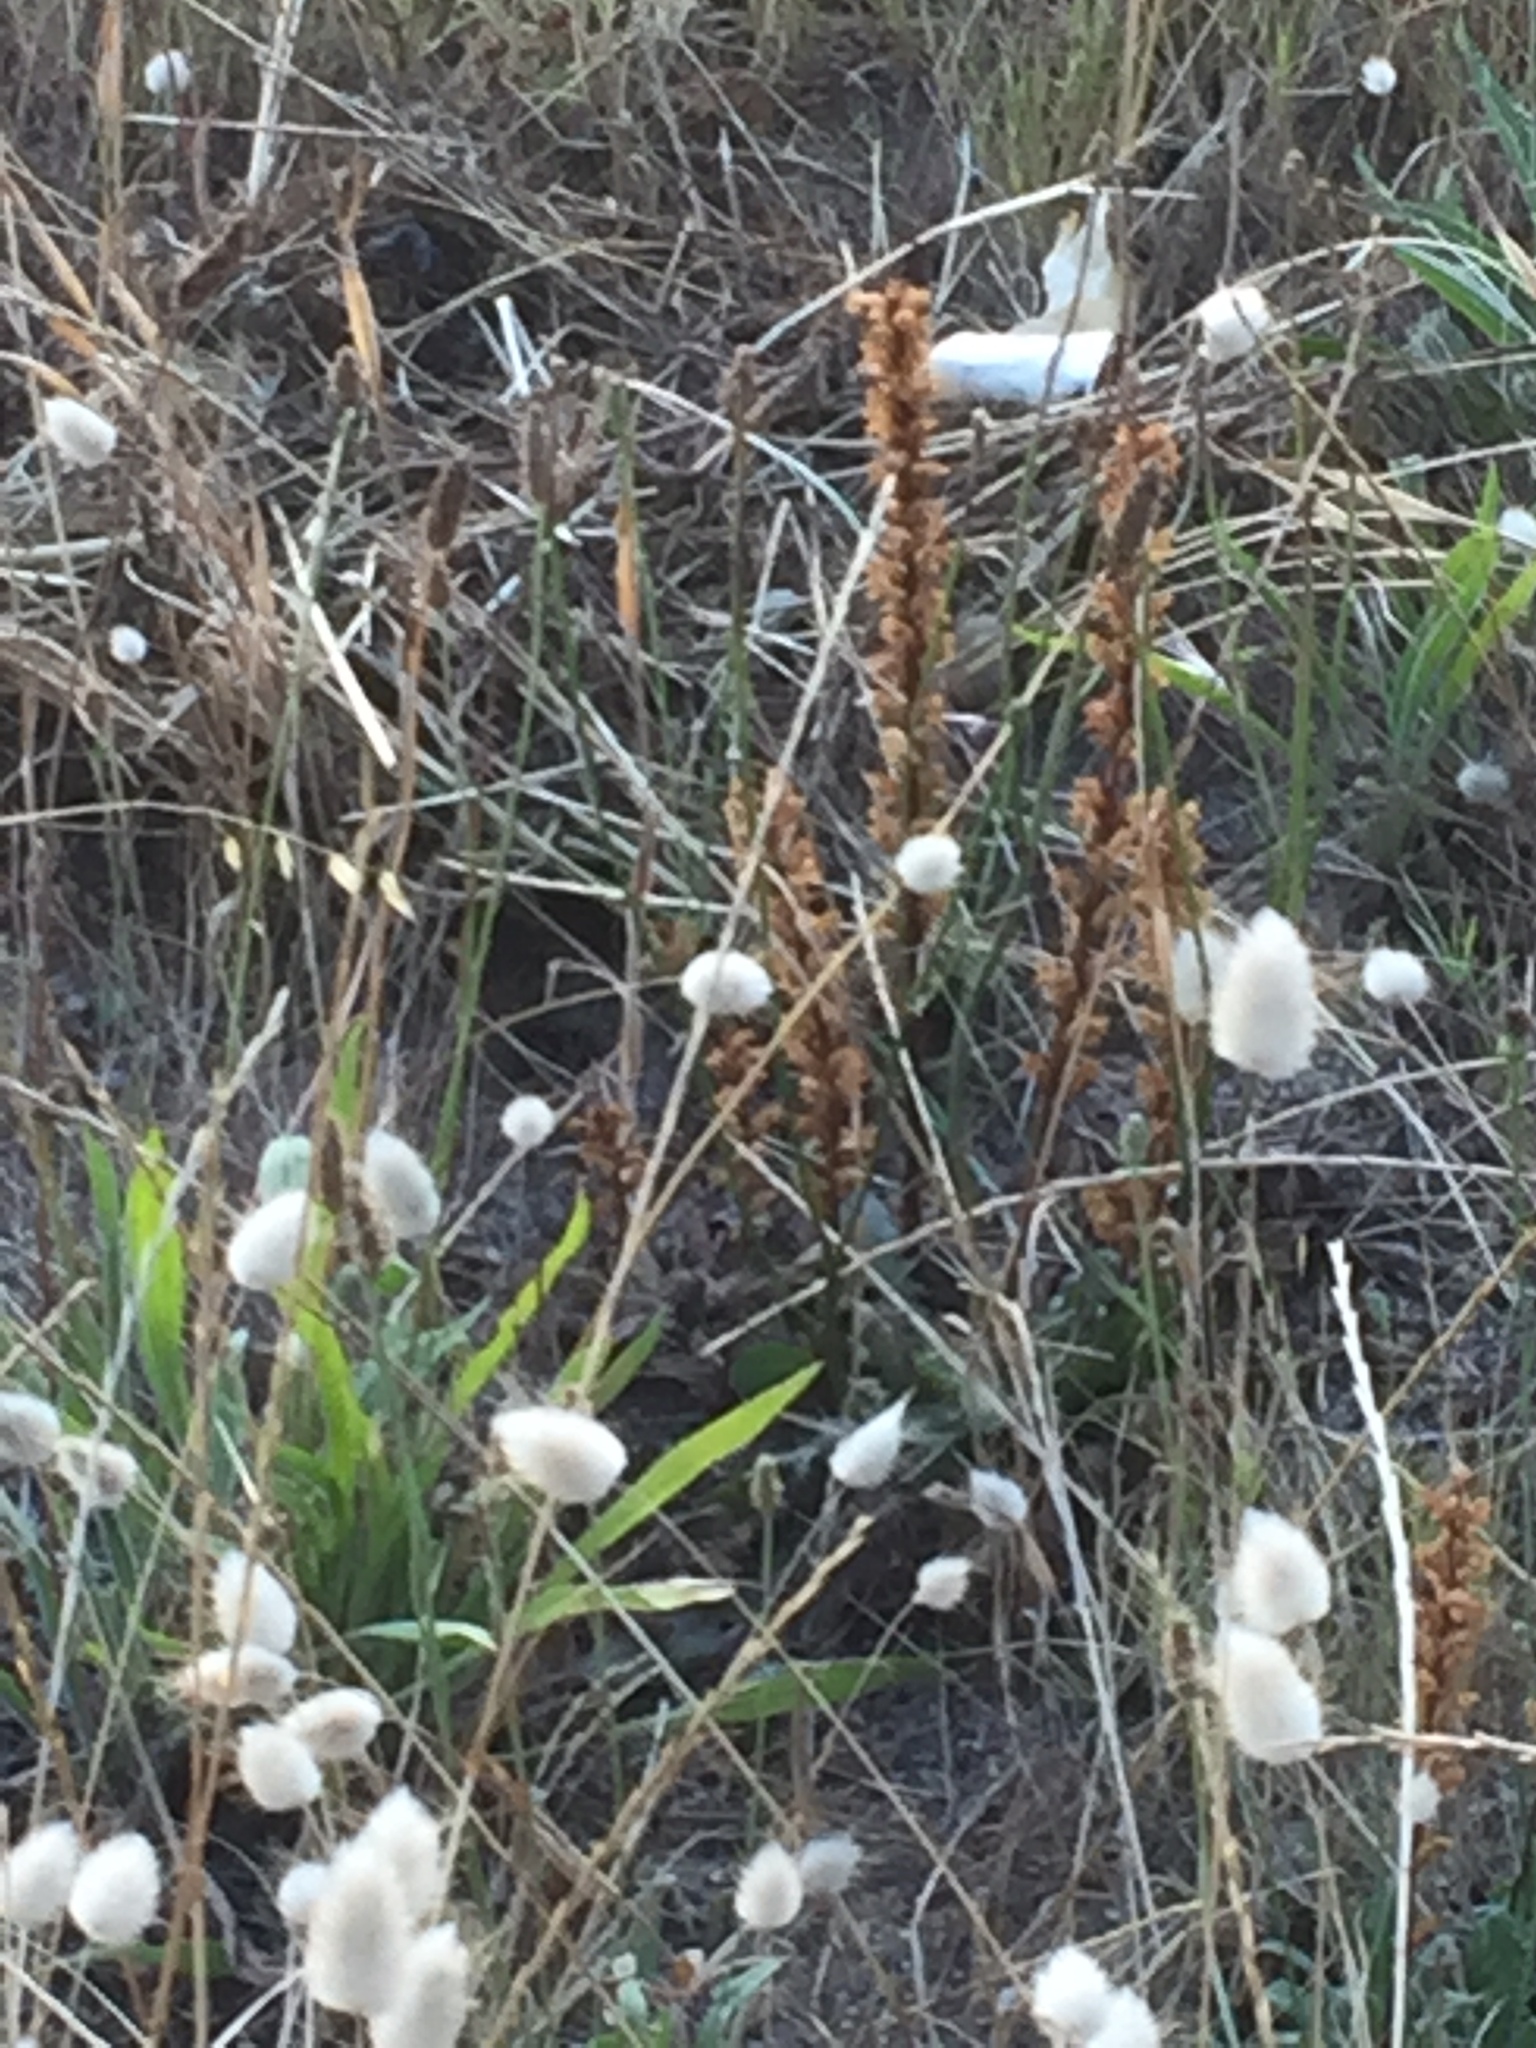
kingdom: Plantae
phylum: Tracheophyta
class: Magnoliopsida
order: Lamiales
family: Orobanchaceae
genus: Orobanche
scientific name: Orobanche minor
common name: Common broomrape
